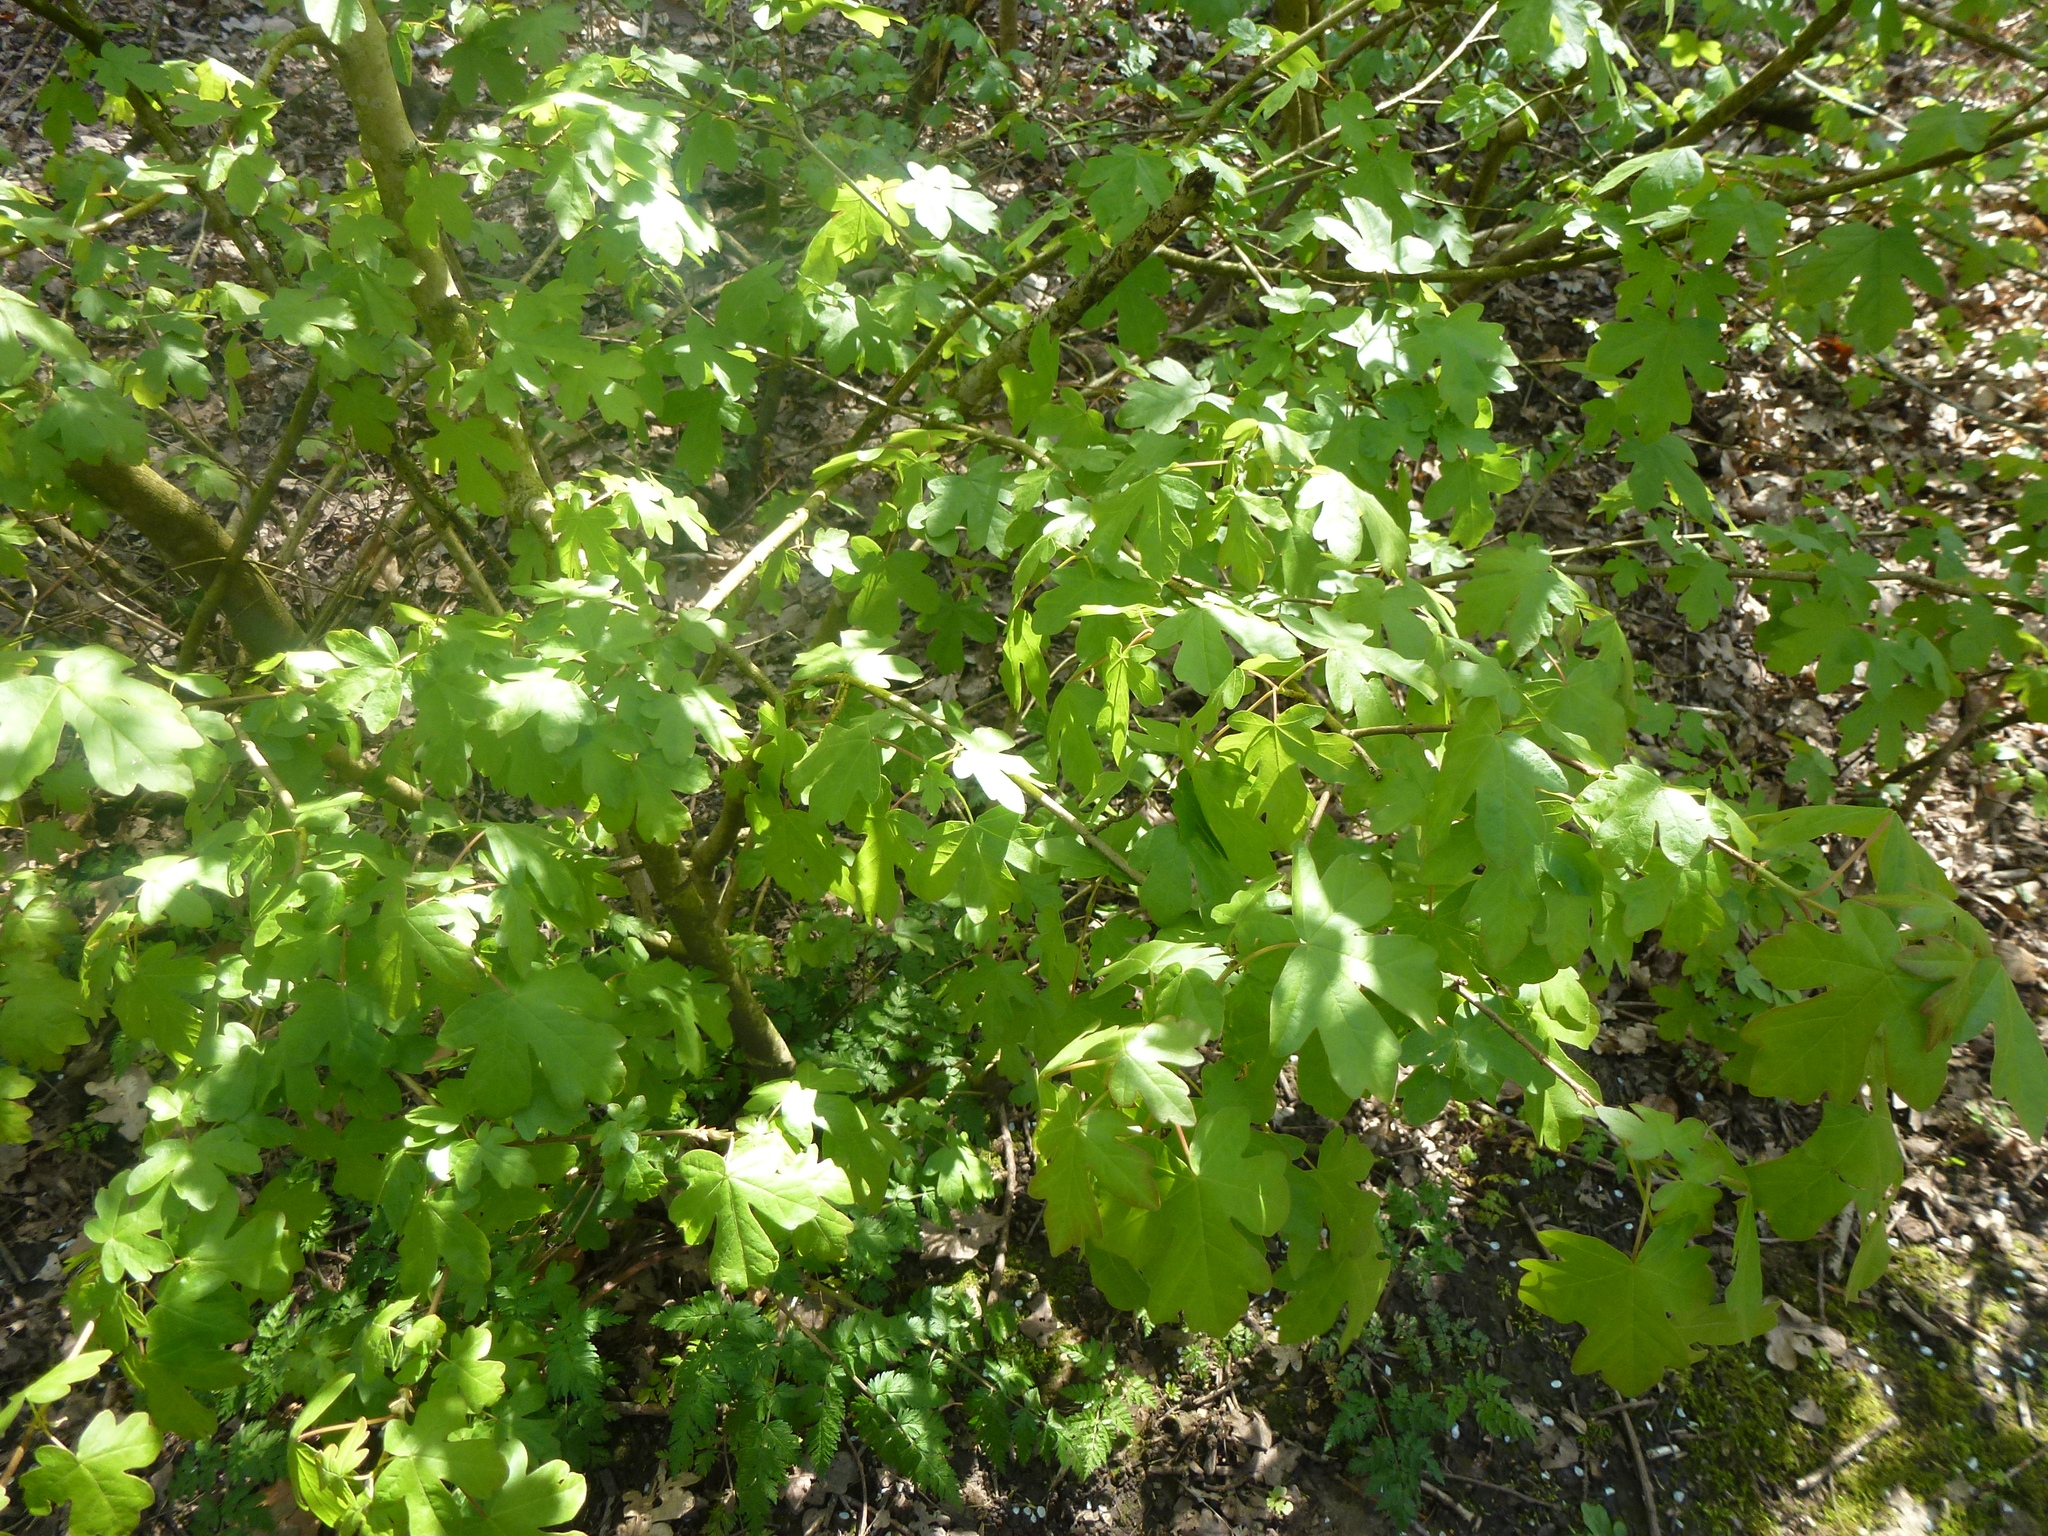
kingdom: Plantae
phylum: Tracheophyta
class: Magnoliopsida
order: Sapindales
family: Sapindaceae
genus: Acer
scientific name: Acer campestre
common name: Field maple
